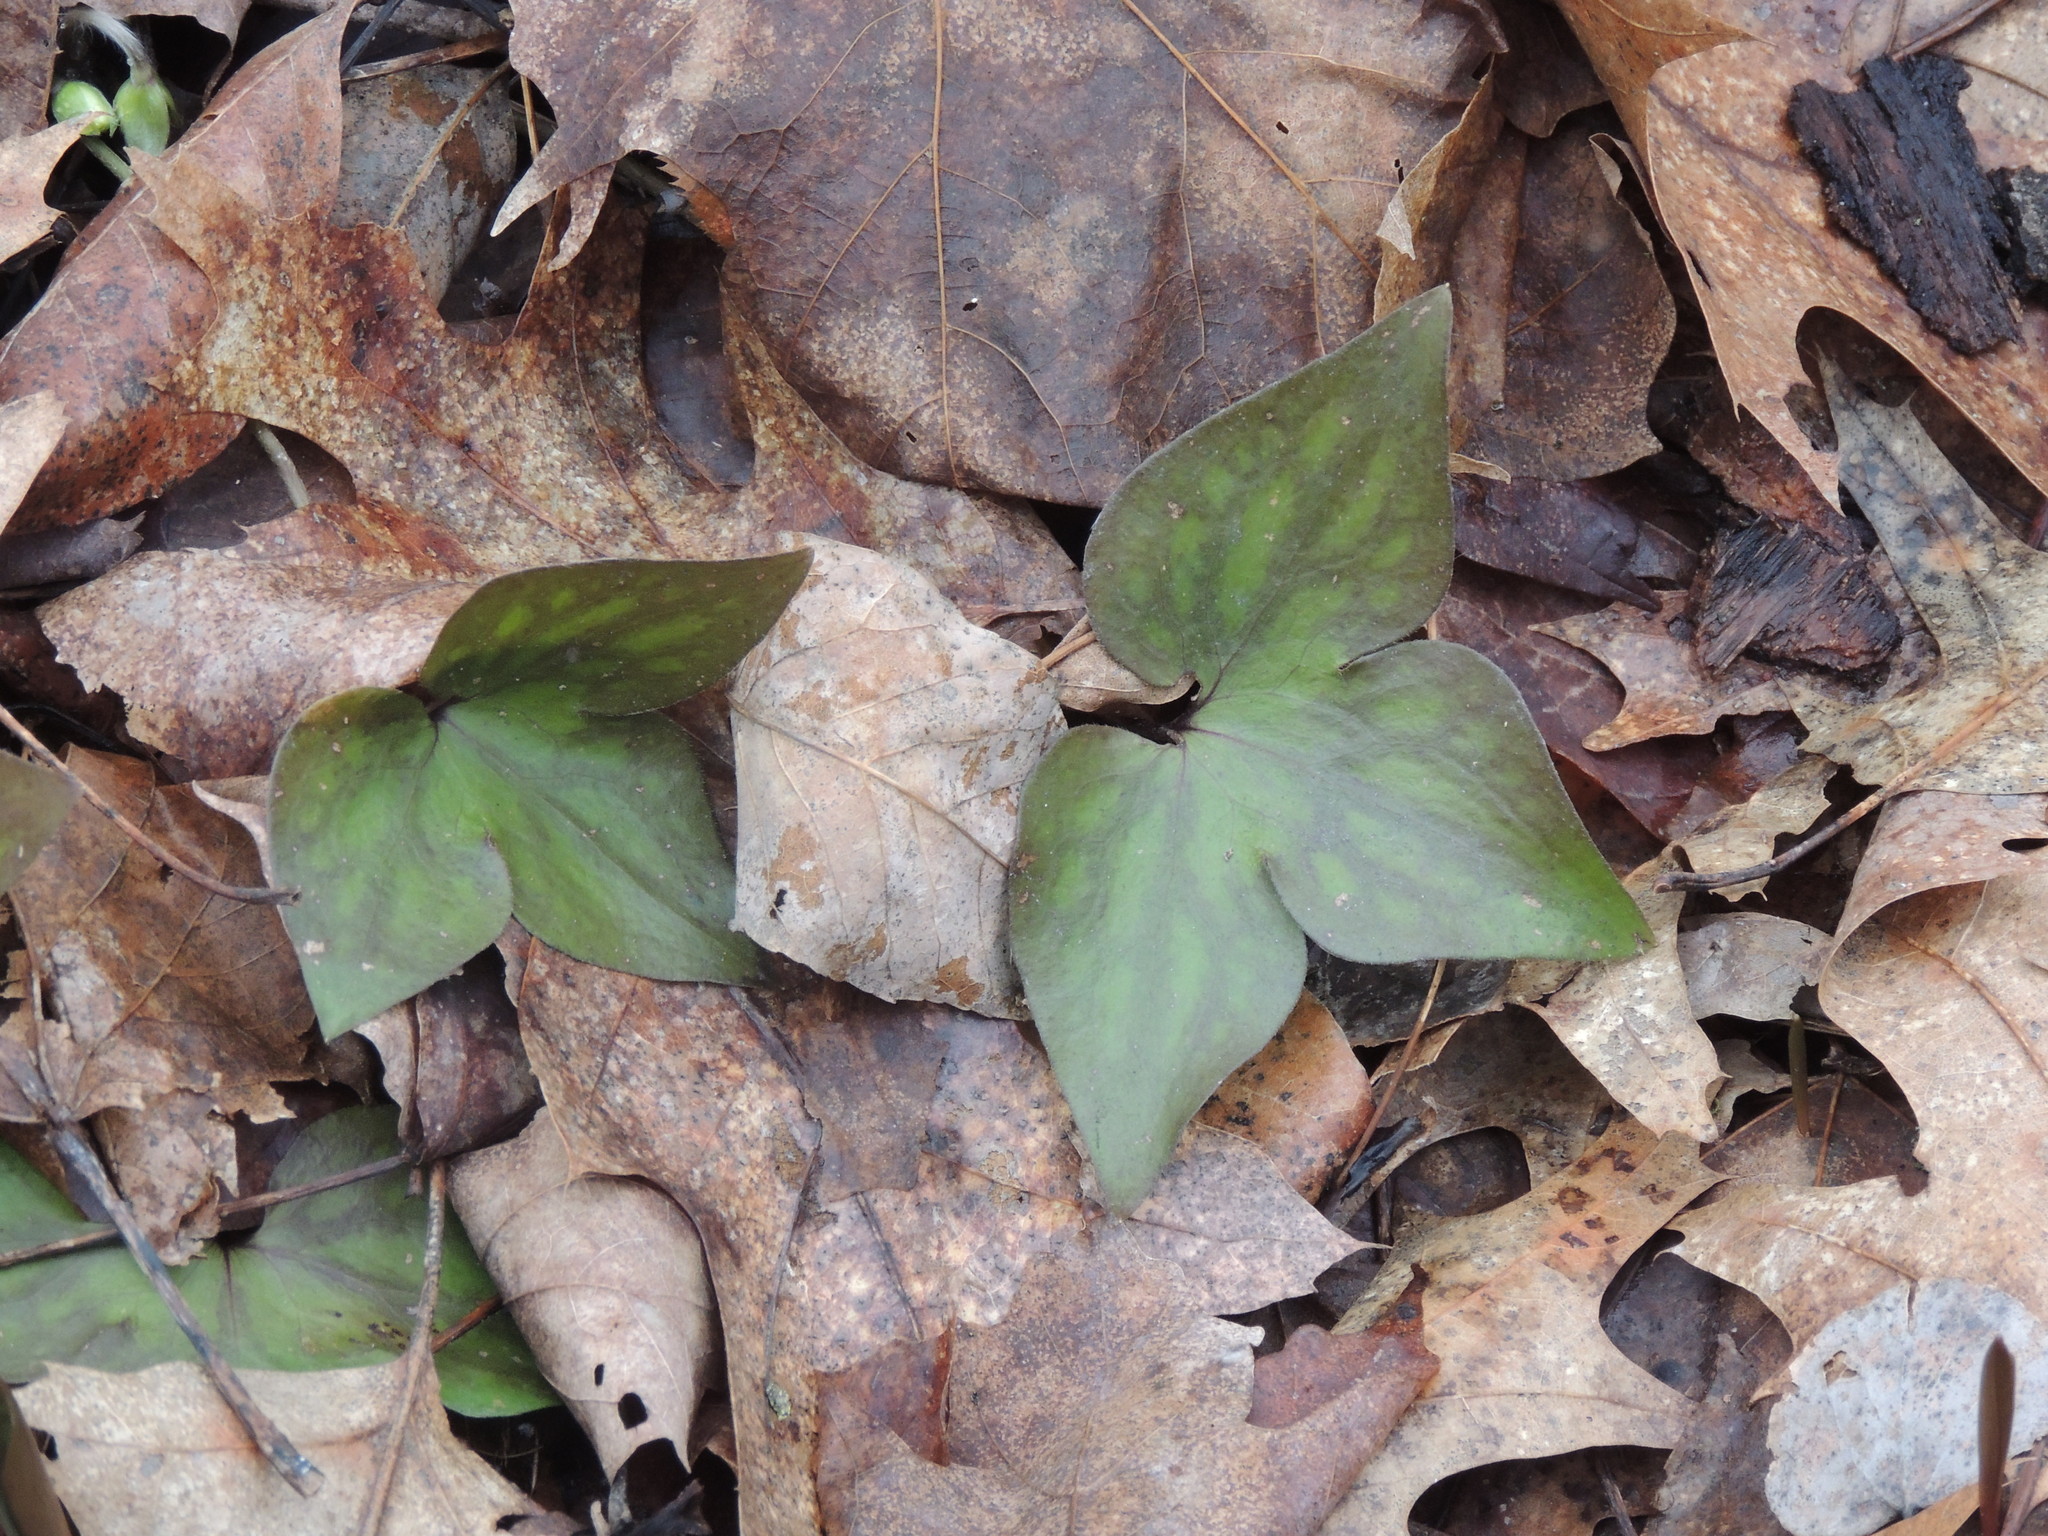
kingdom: Plantae
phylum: Tracheophyta
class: Magnoliopsida
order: Ranunculales
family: Ranunculaceae
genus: Hepatica
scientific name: Hepatica acutiloba
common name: Sharp-lobed hepatica
